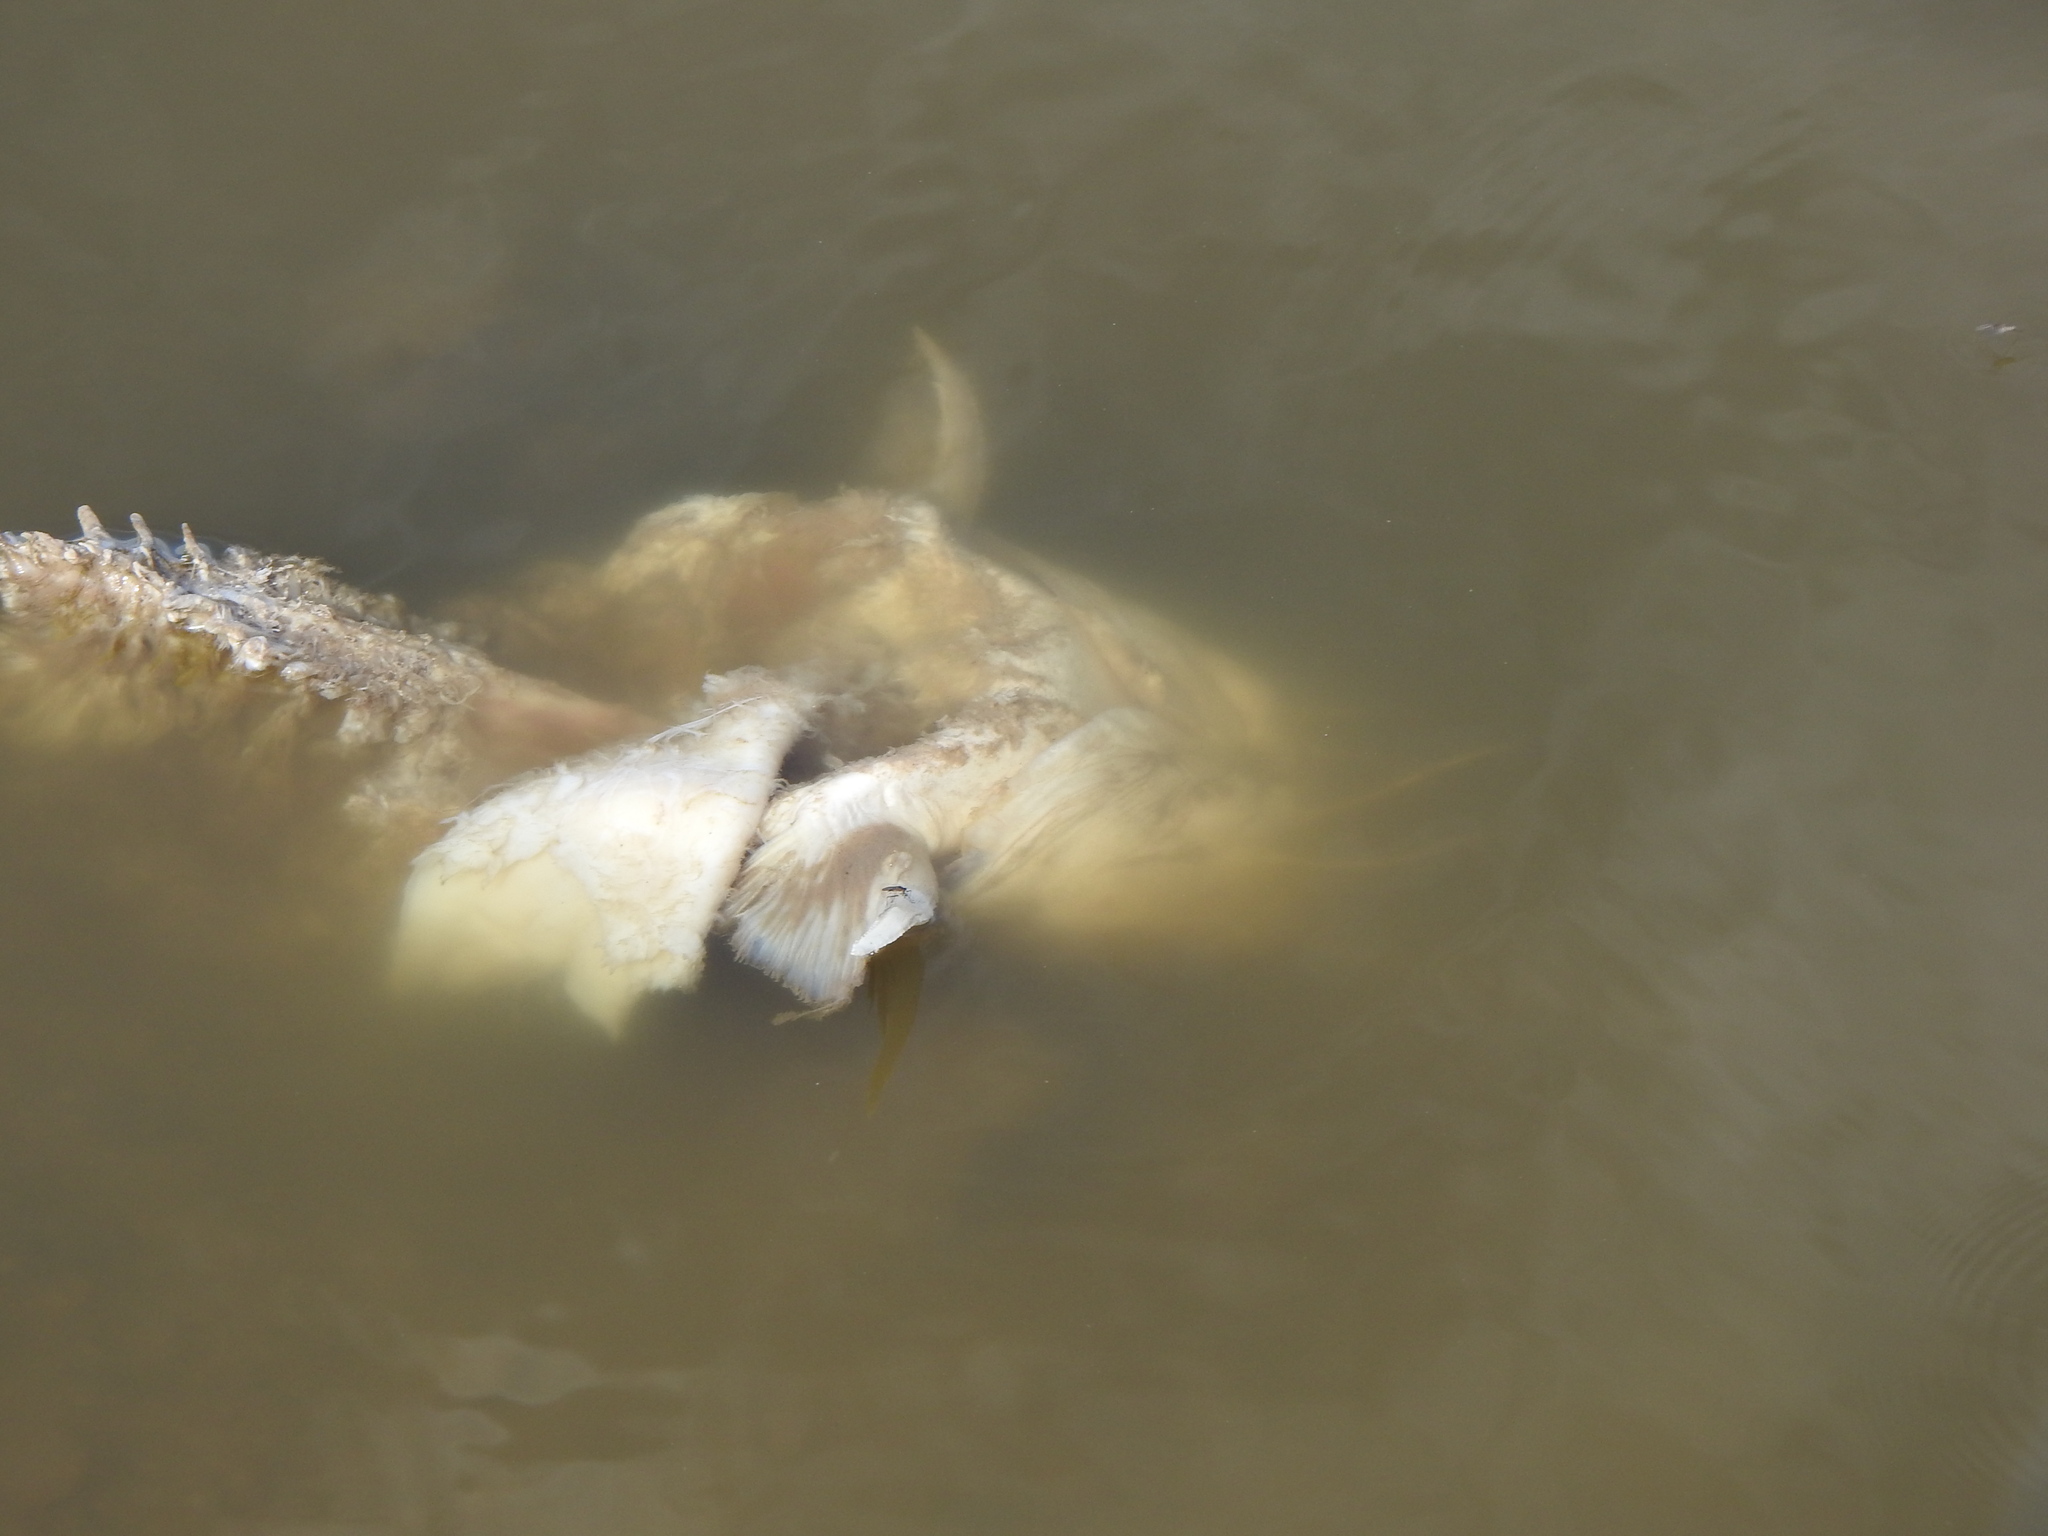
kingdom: Animalia
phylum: Chordata
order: Siluriformes
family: Heptapteridae
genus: Rhamdia
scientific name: Rhamdia quelen
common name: Catfish
